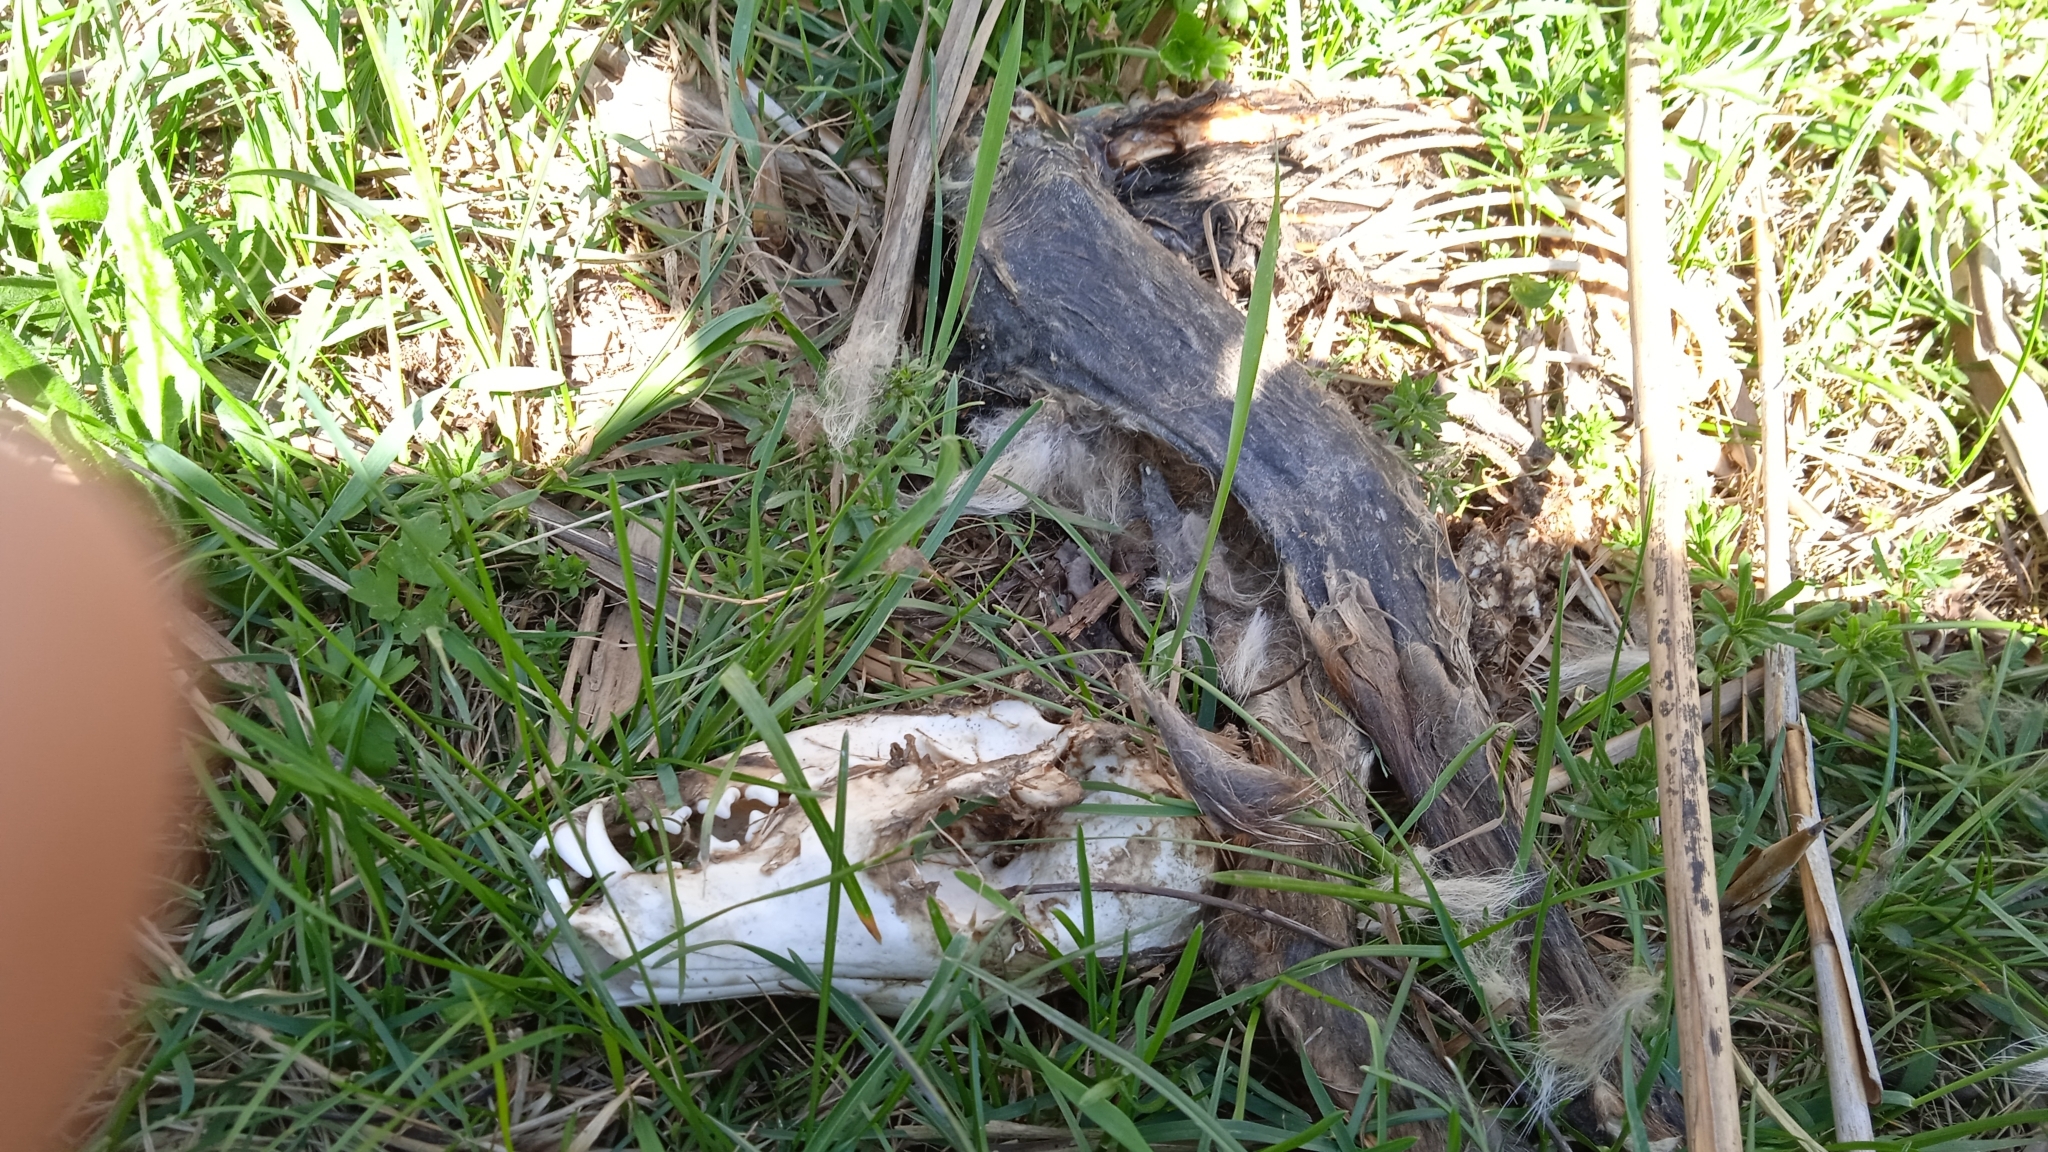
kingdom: Animalia
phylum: Chordata
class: Mammalia
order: Carnivora
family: Canidae
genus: Vulpes
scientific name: Vulpes vulpes
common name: Red fox
